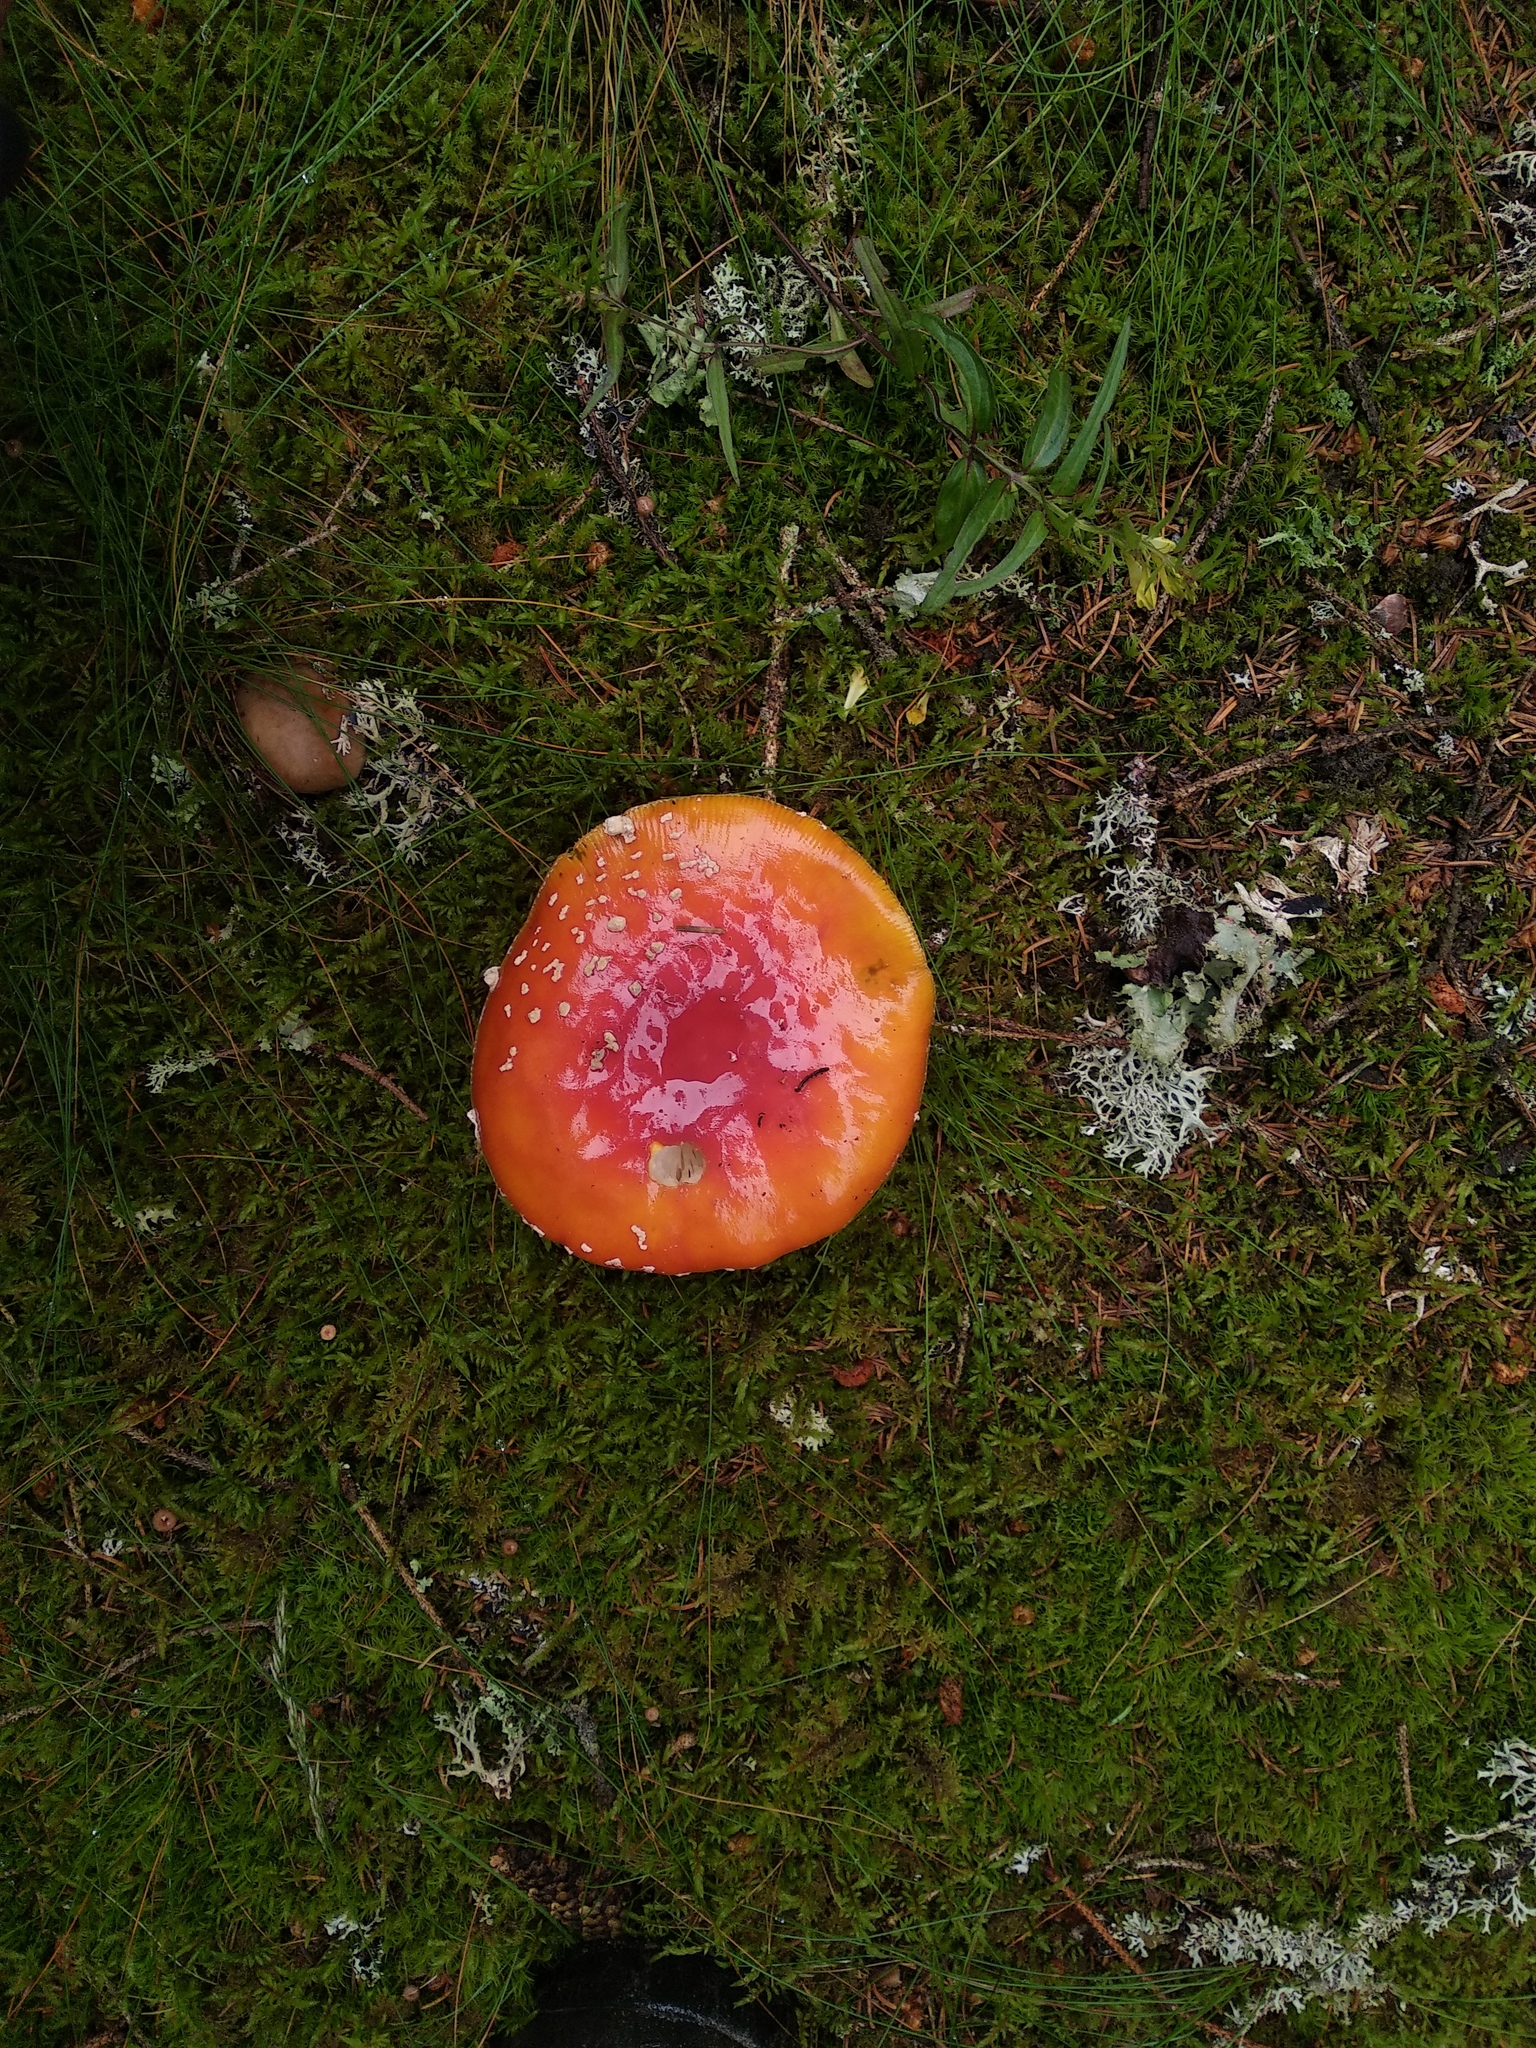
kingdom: Fungi
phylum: Basidiomycota
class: Agaricomycetes
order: Agaricales
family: Amanitaceae
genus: Amanita
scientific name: Amanita muscaria
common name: Fly agaric
